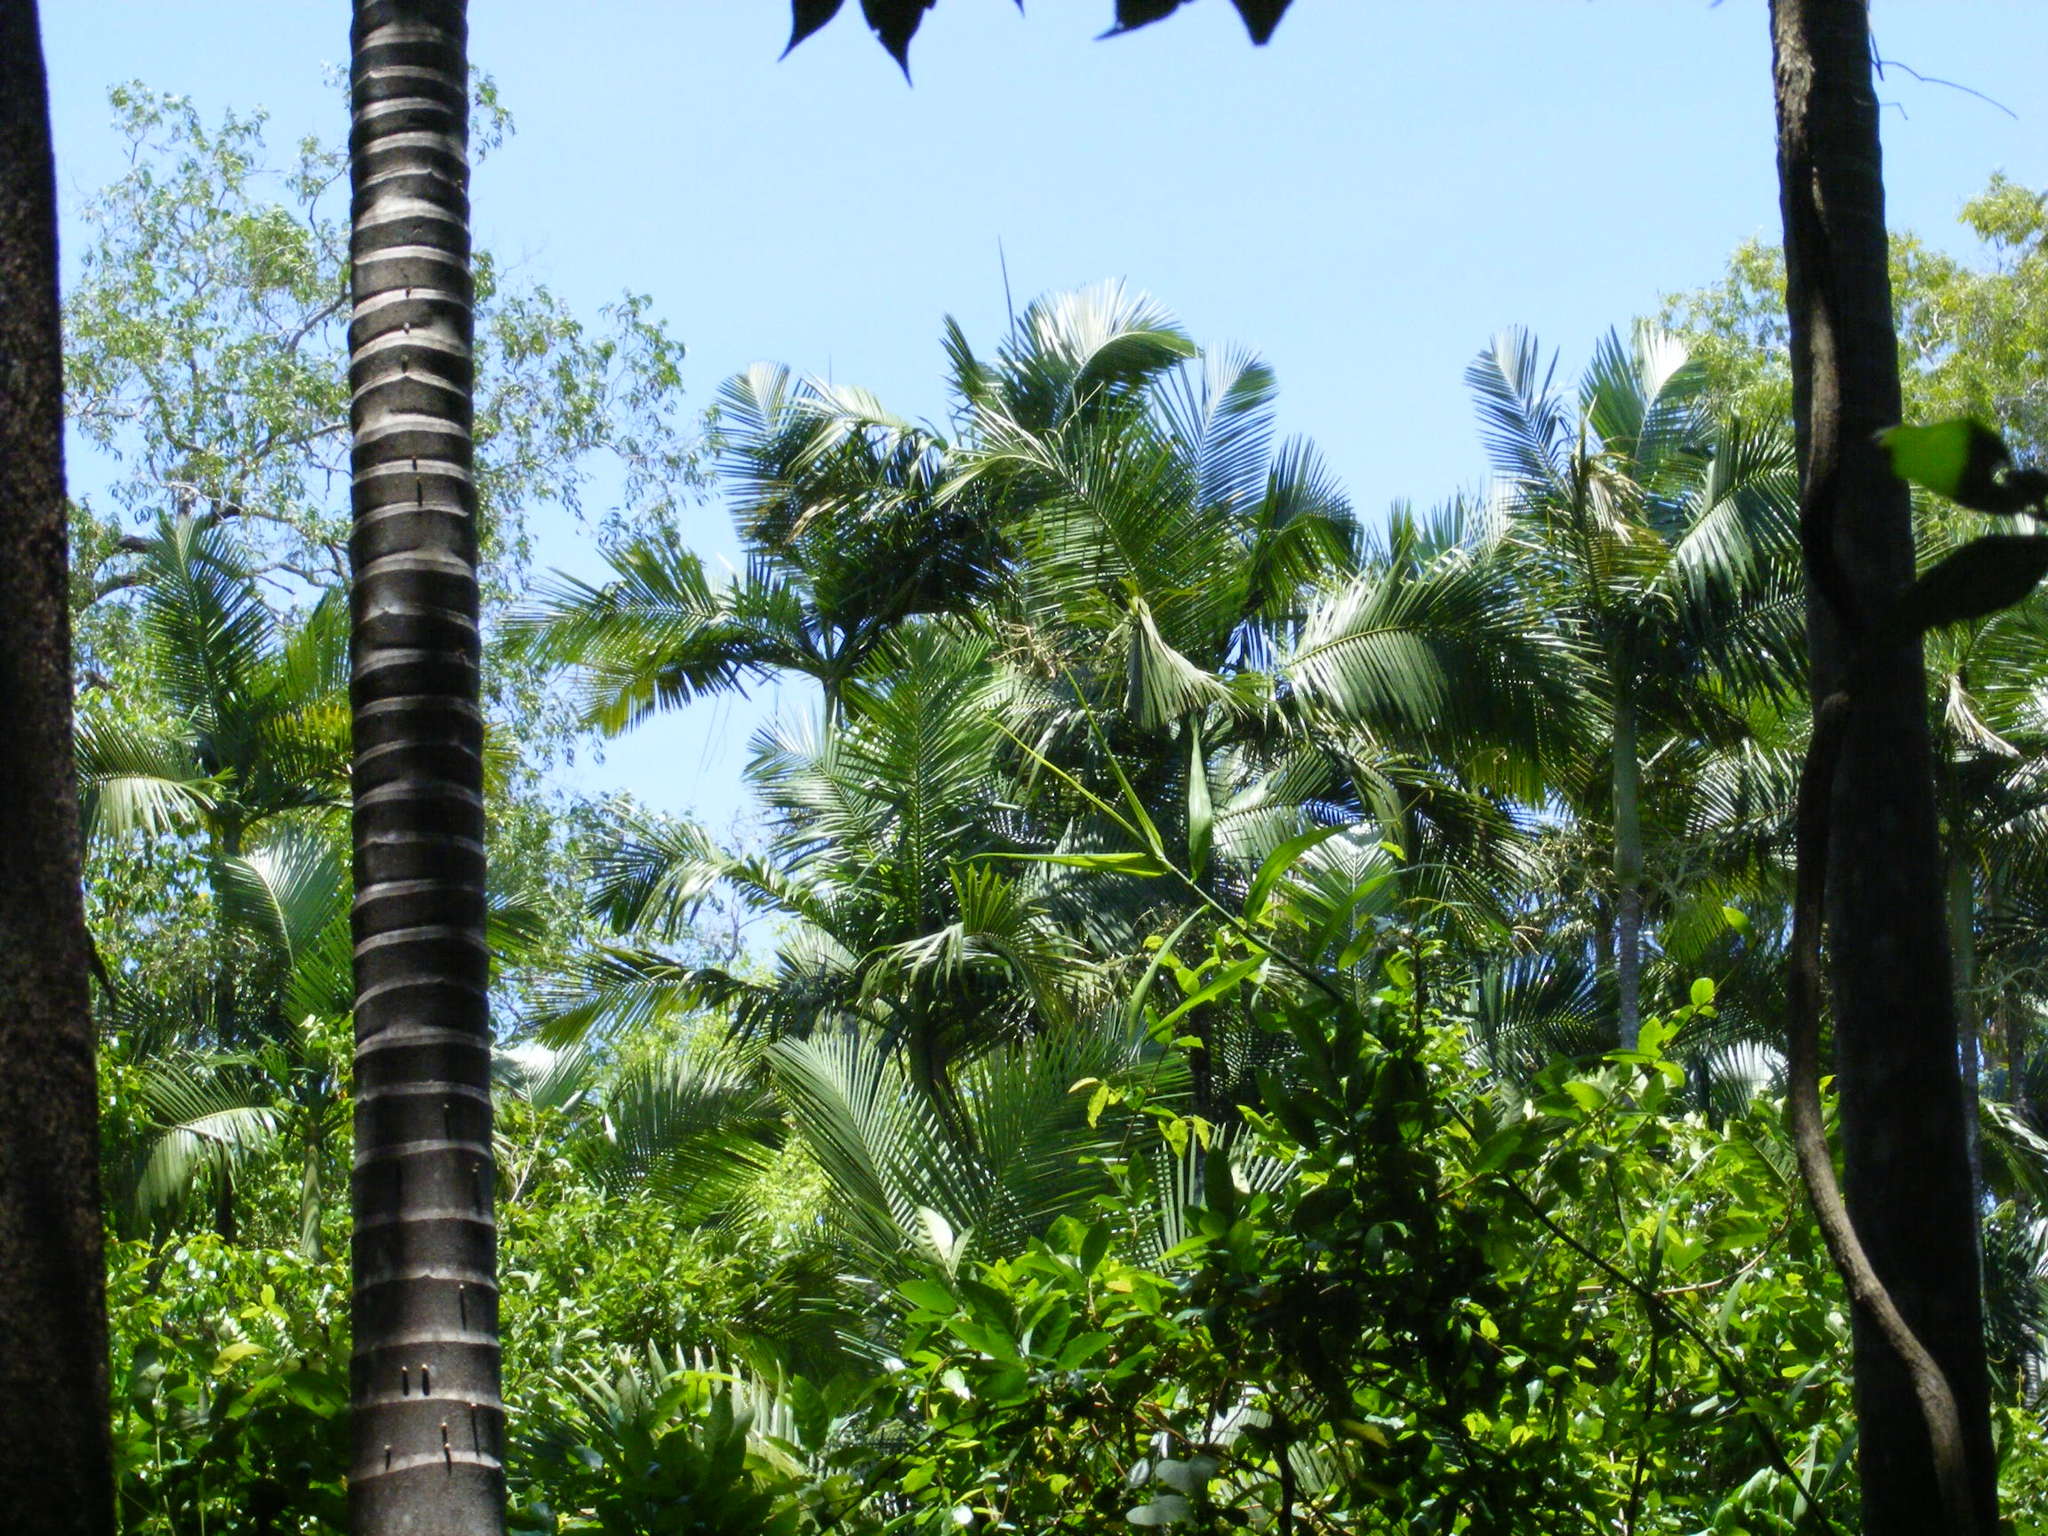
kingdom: Plantae
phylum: Tracheophyta
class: Liliopsida
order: Arecales
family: Arecaceae
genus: Archontophoenix
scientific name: Archontophoenix tuckeri
